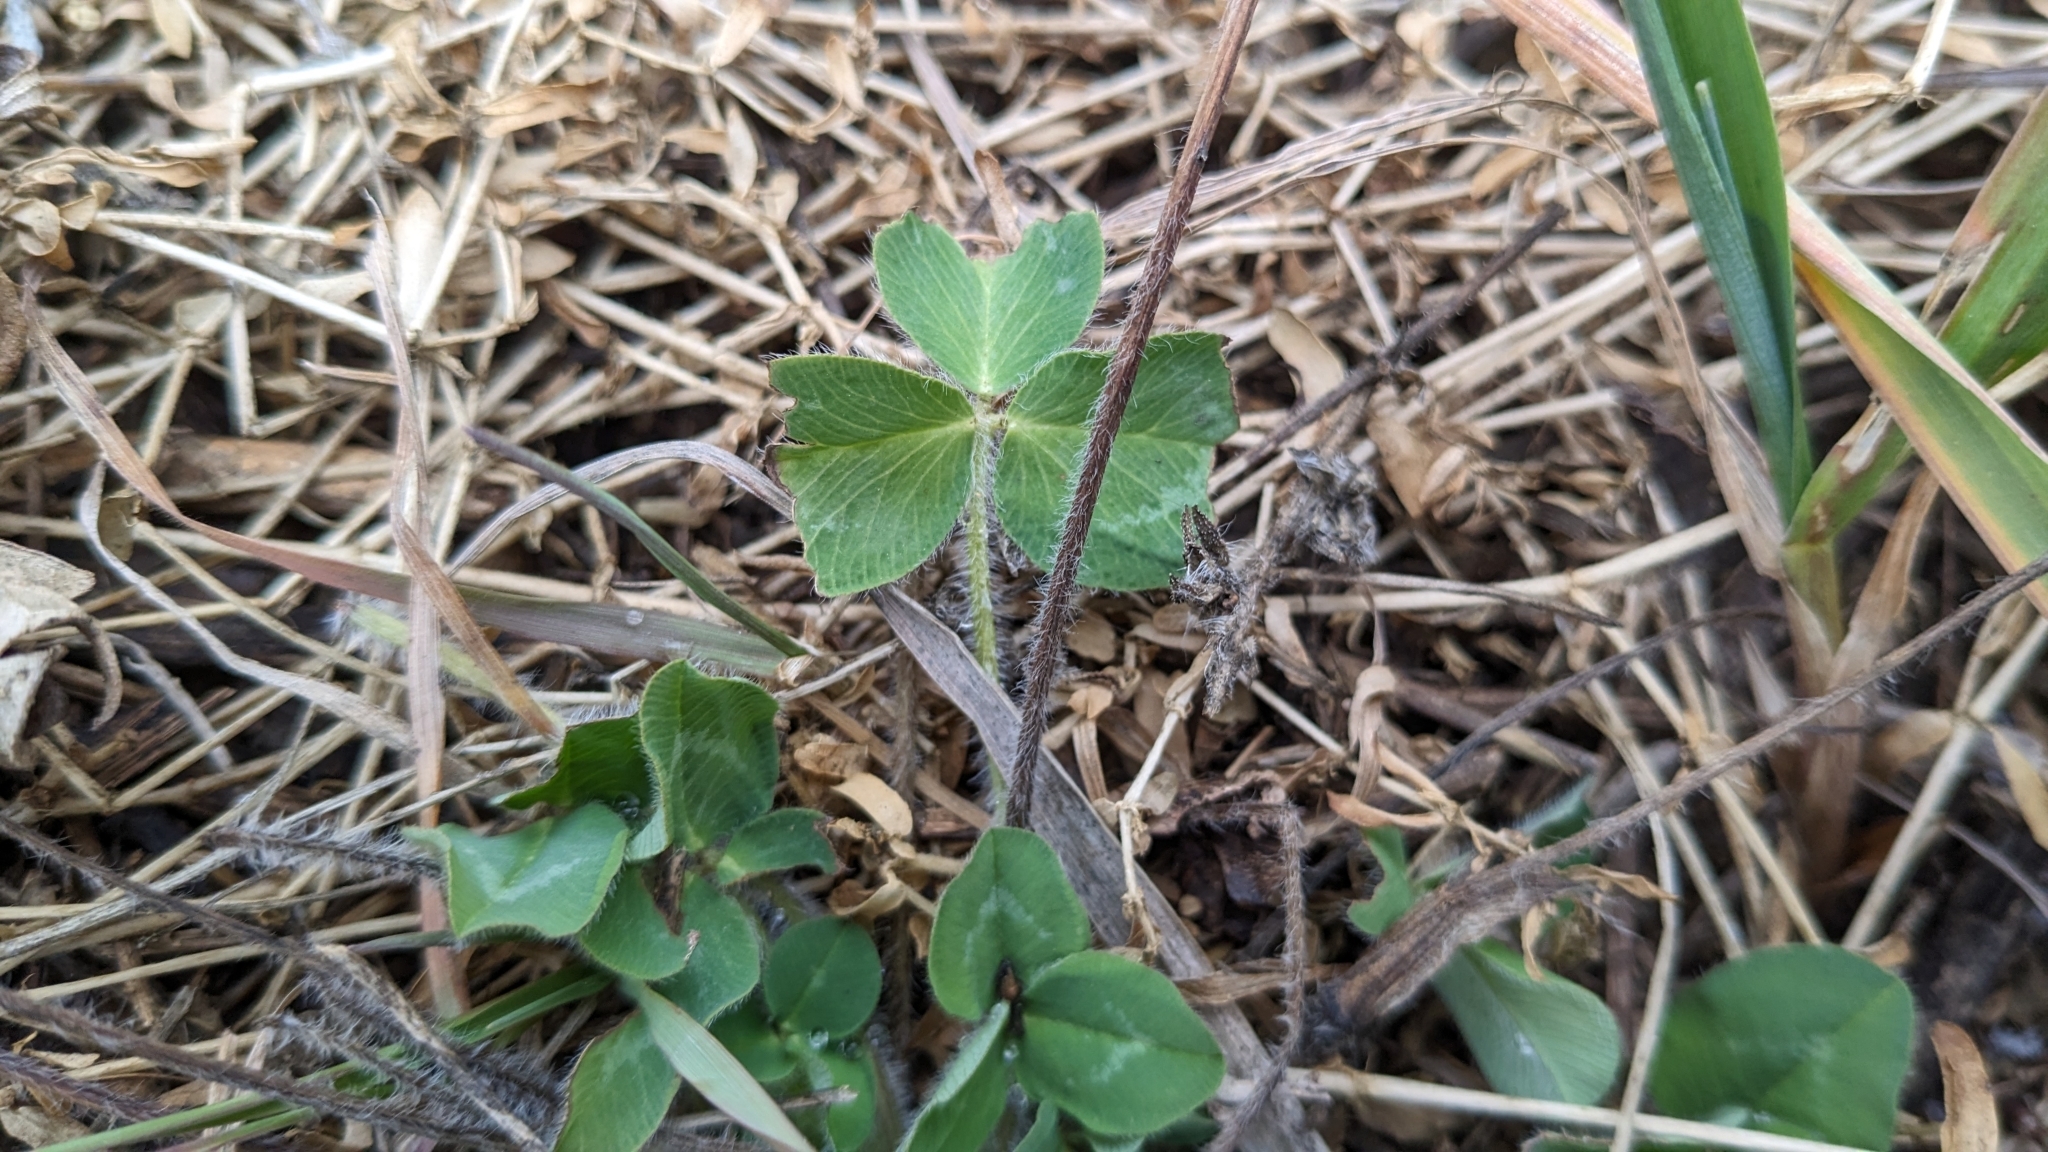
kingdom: Plantae
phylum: Tracheophyta
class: Magnoliopsida
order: Fabales
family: Fabaceae
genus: Trifolium
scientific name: Trifolium pratense
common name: Red clover
